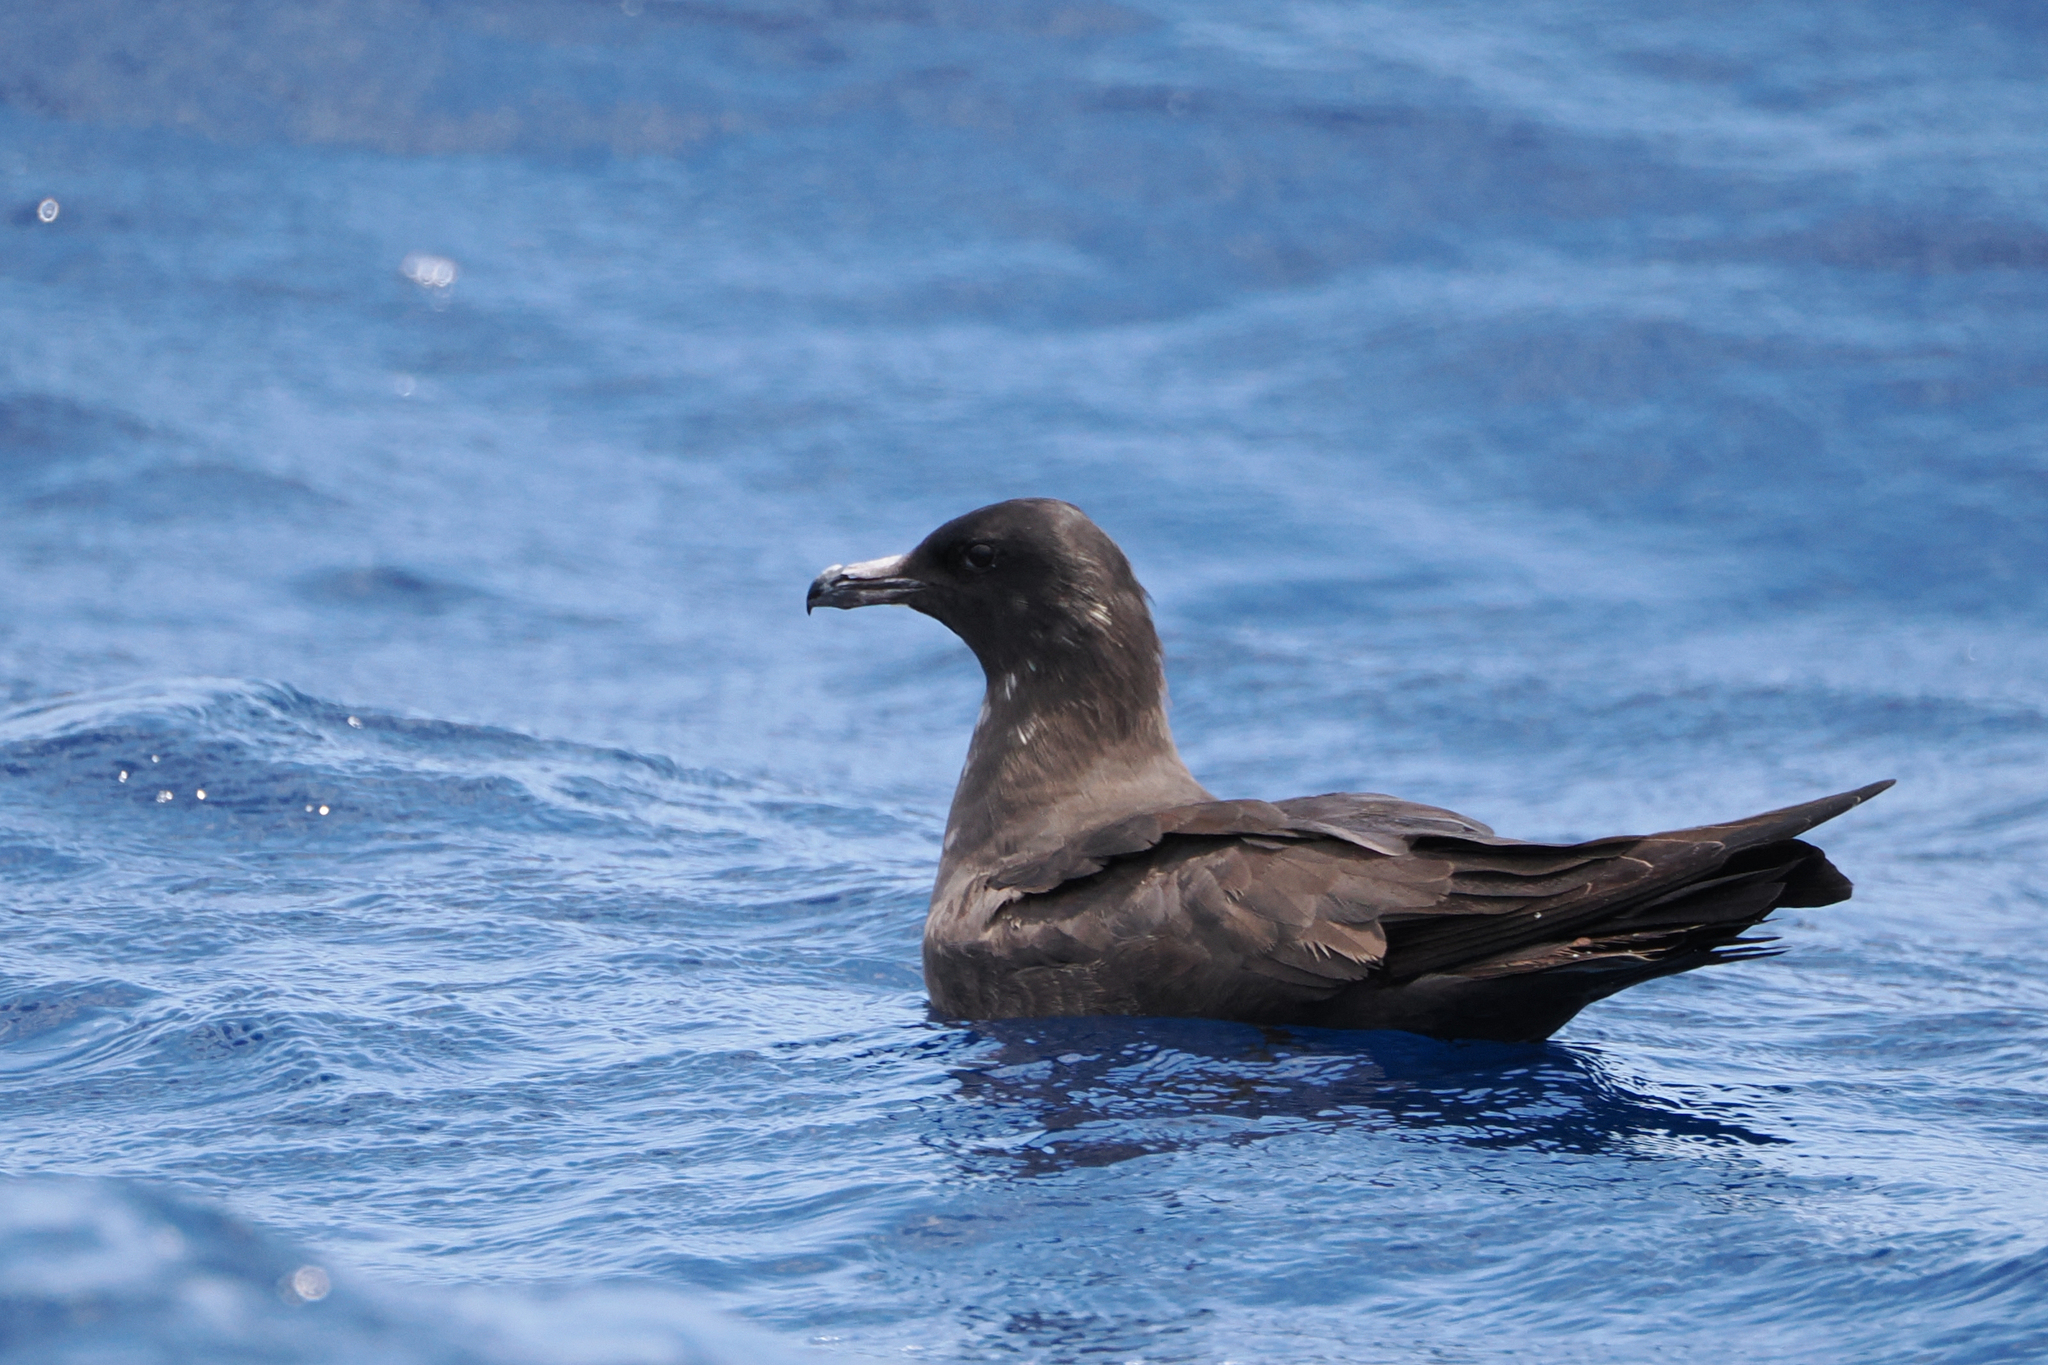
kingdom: Animalia
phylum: Chordata
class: Aves
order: Charadriiformes
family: Stercorariidae
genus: Stercorarius
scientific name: Stercorarius pomarinus
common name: Pomarine jaeger
